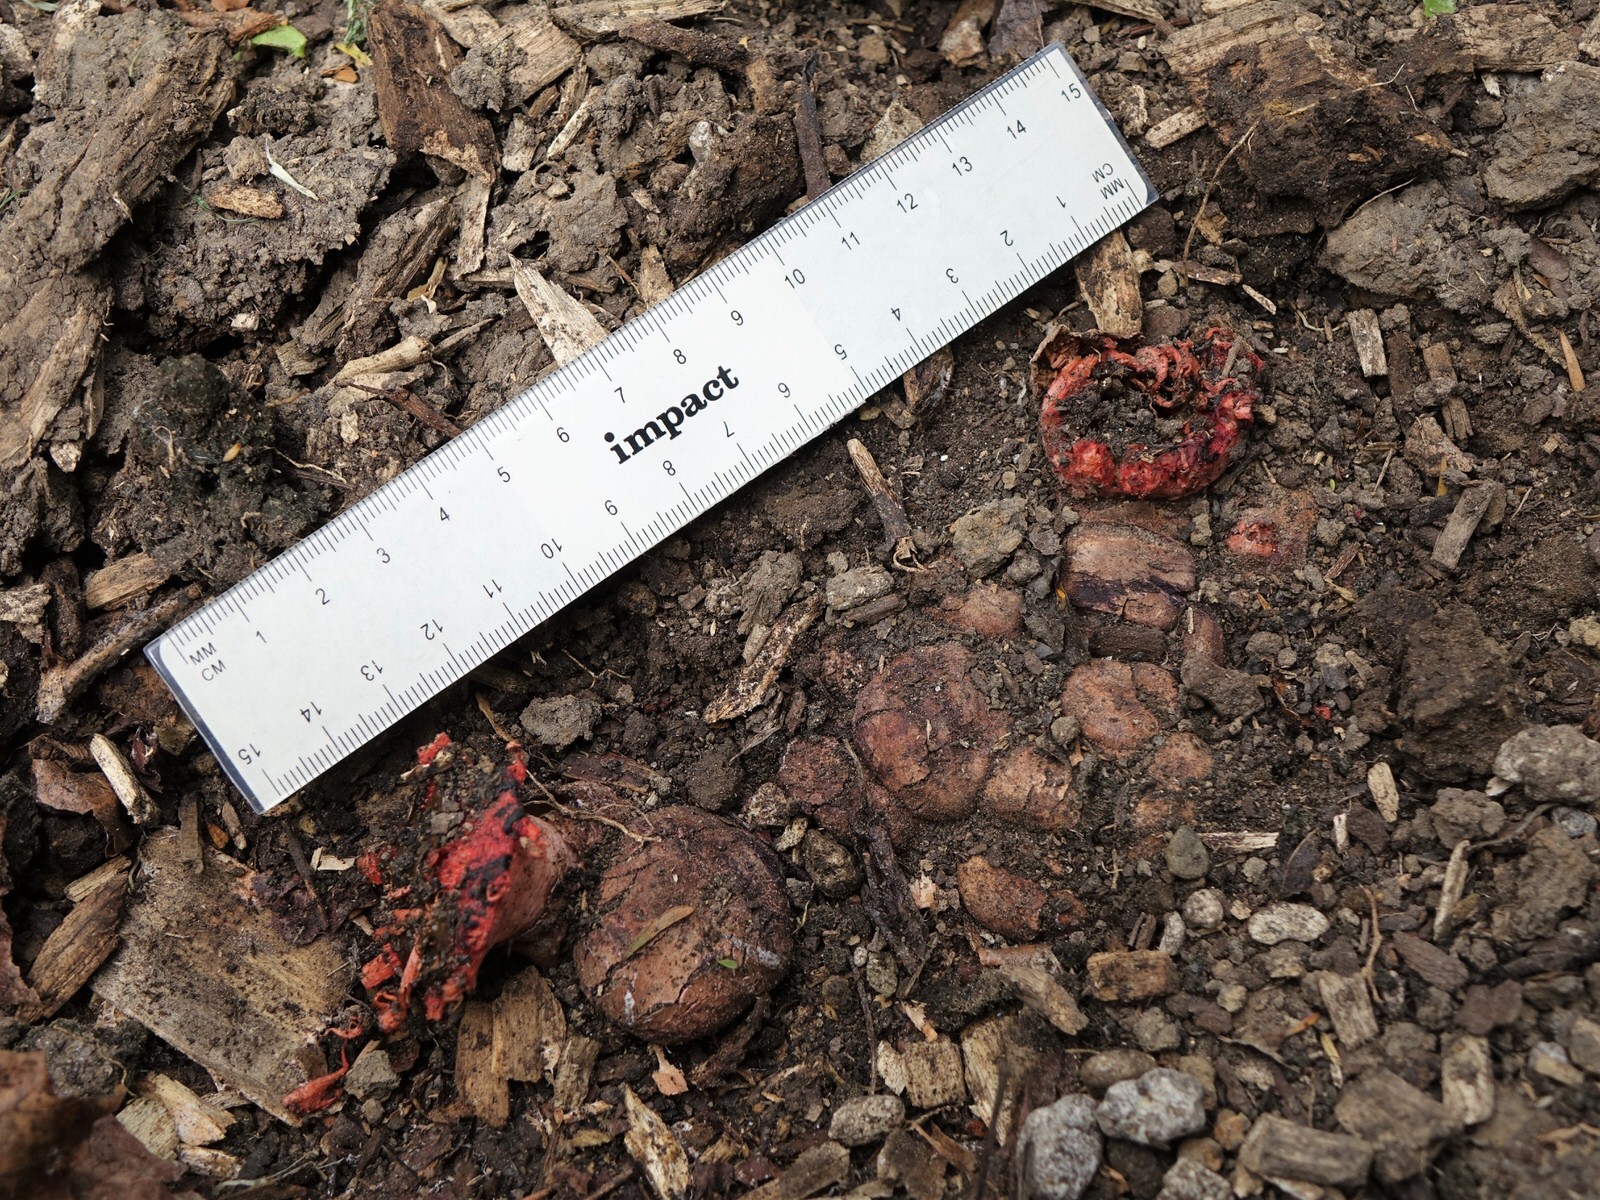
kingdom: Fungi
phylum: Basidiomycota
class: Agaricomycetes
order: Phallales
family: Phallaceae
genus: Aseroe
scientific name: Aseroe rubra
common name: Starfish fungus
